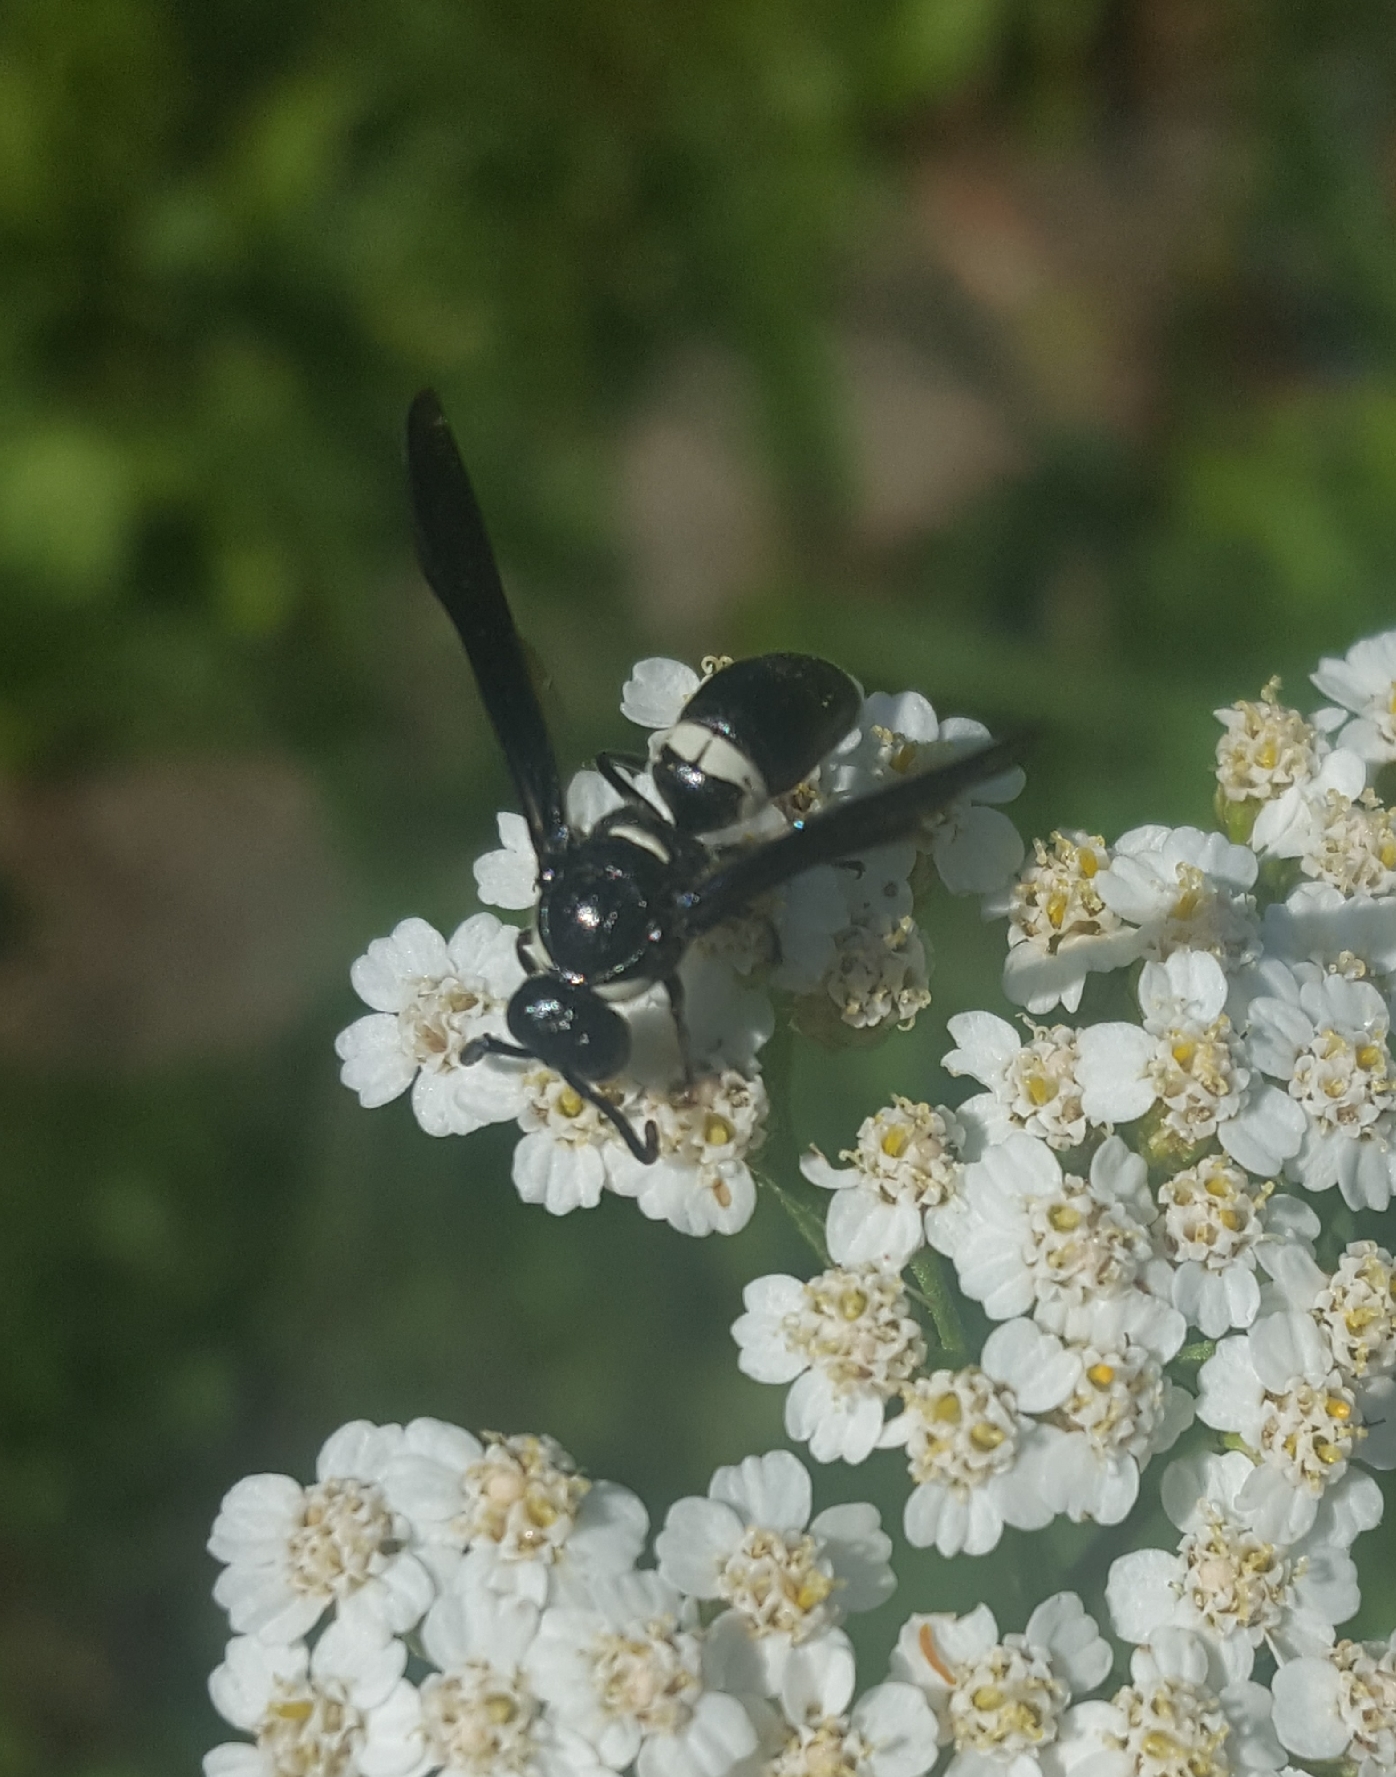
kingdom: Animalia
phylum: Arthropoda
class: Insecta
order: Hymenoptera
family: Eumenidae
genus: Monobia
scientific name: Monobia quadridens
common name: Four-toothed mason wasp
